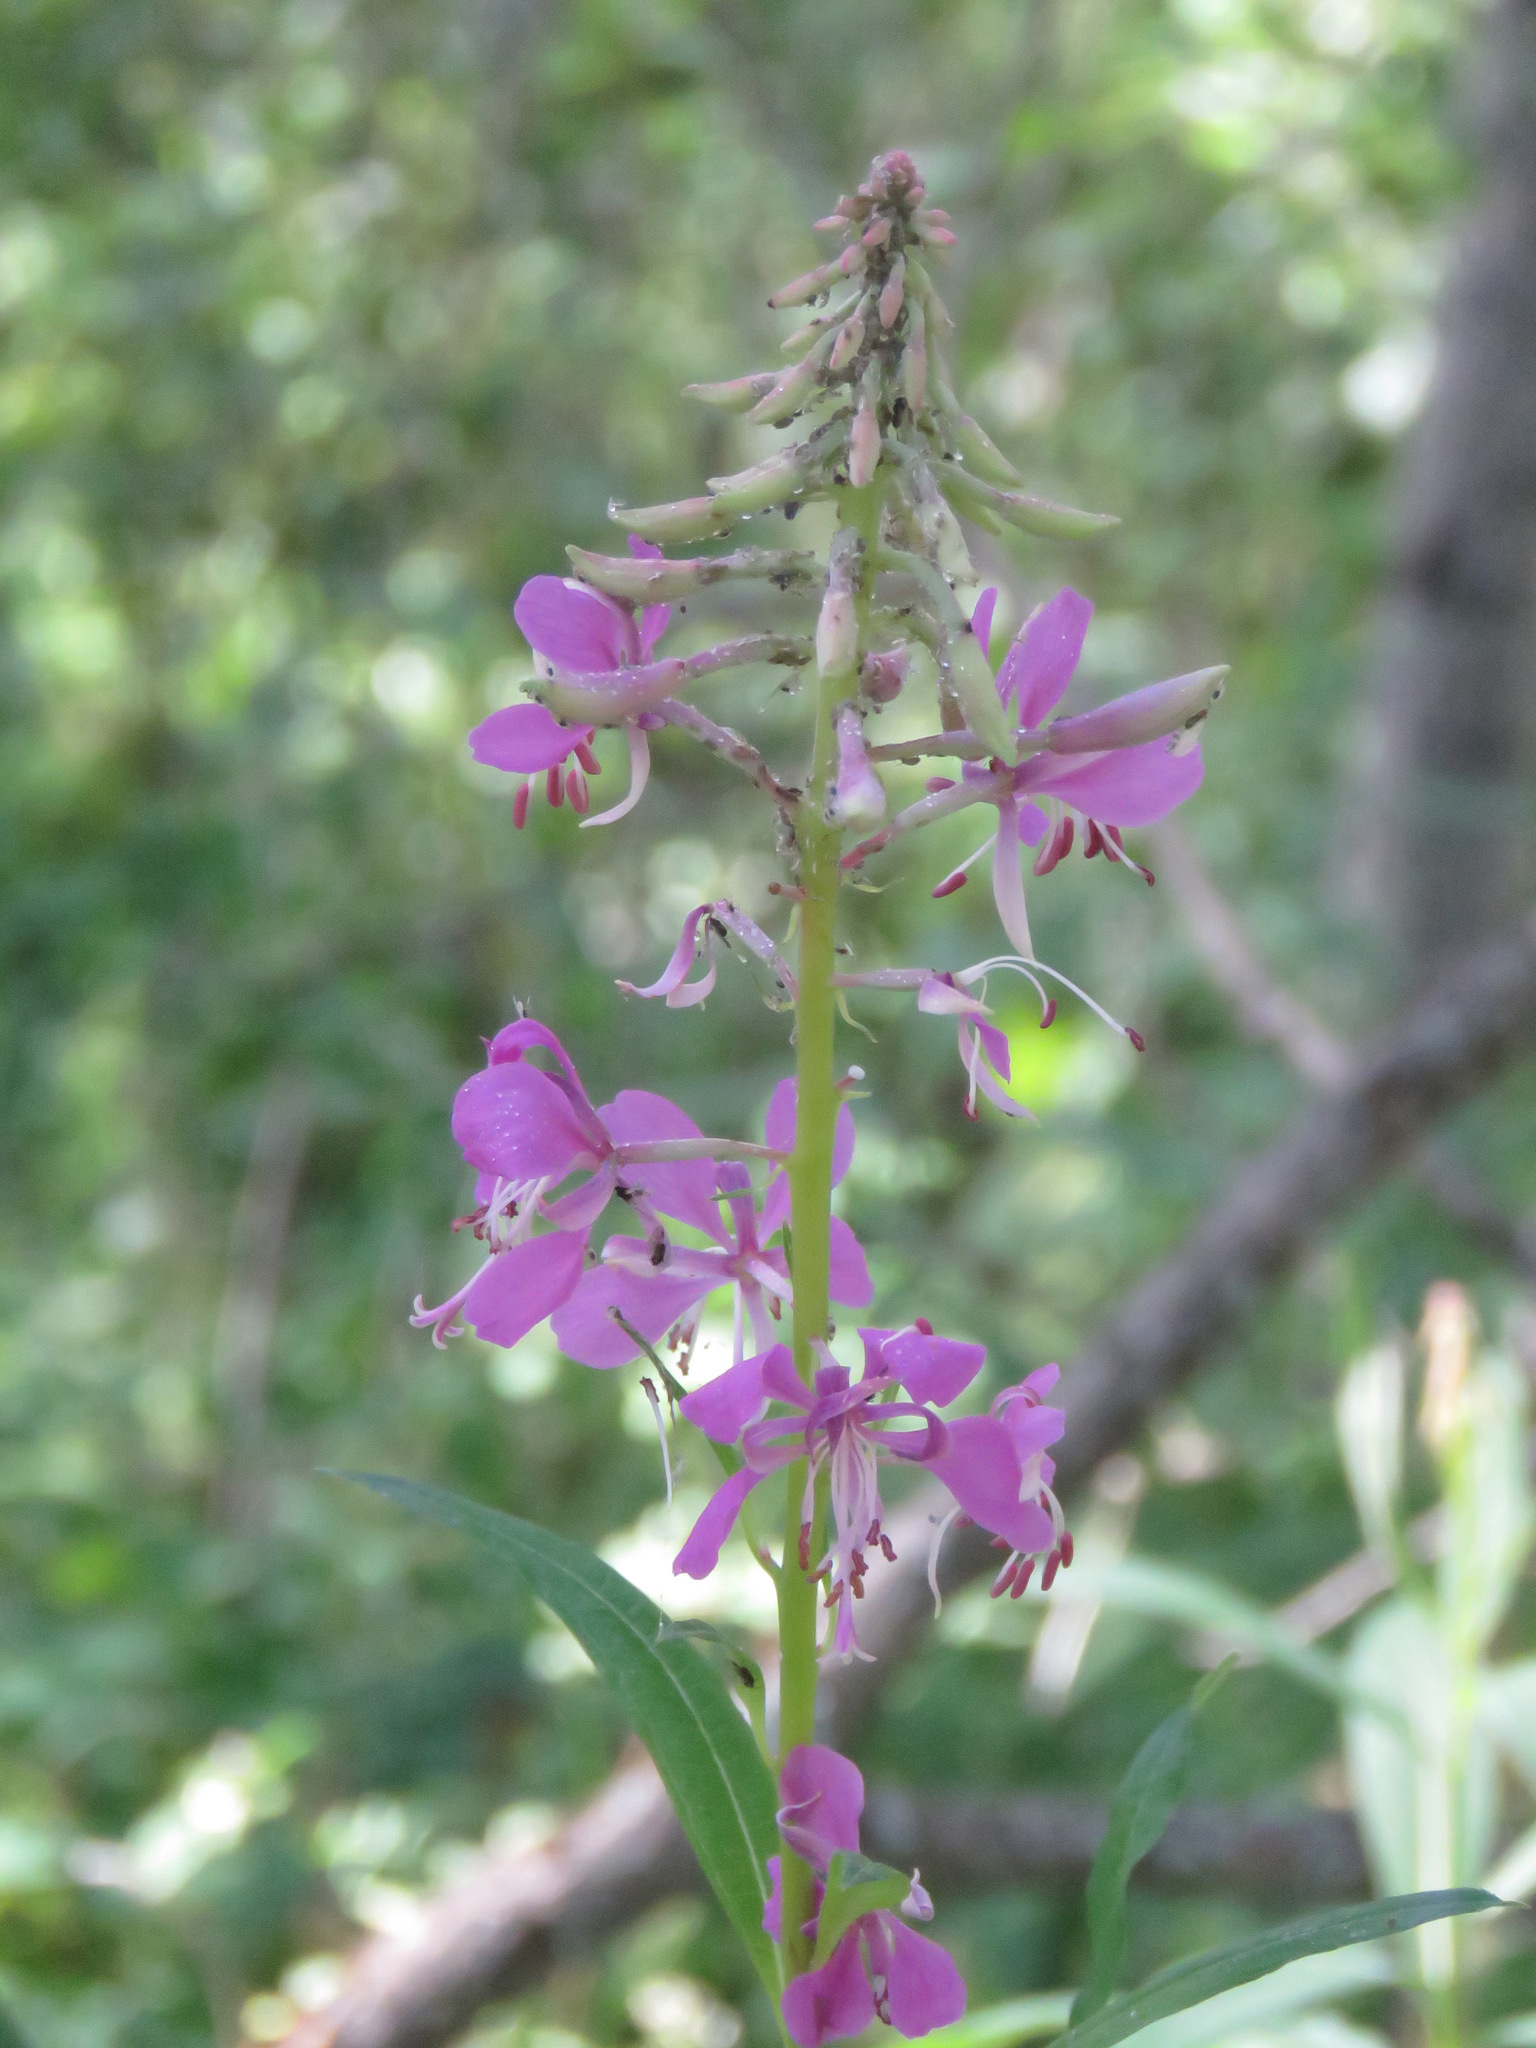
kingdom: Plantae
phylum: Tracheophyta
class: Magnoliopsida
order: Myrtales
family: Onagraceae
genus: Chamaenerion
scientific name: Chamaenerion angustifolium
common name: Fireweed
